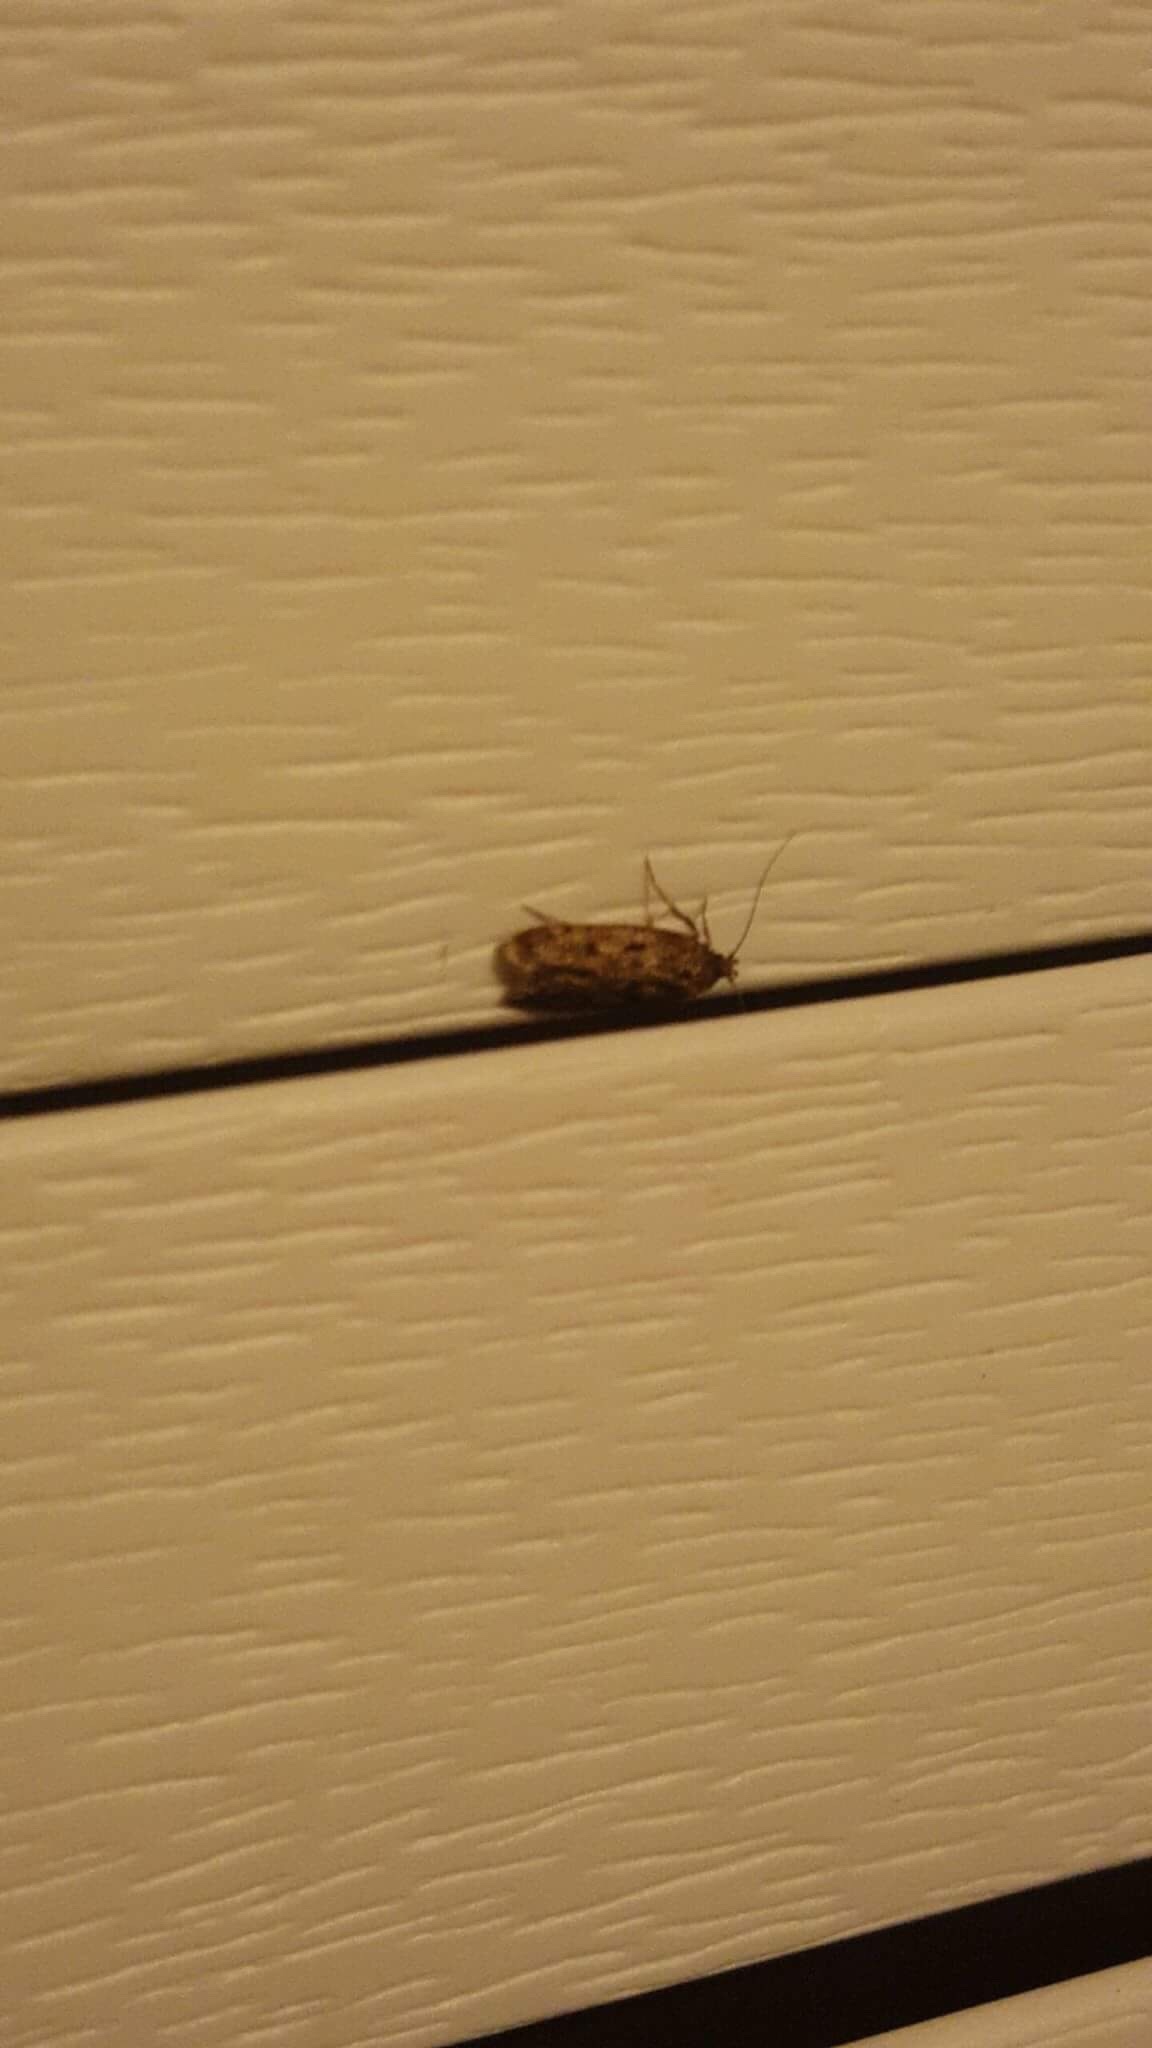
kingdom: Animalia
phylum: Arthropoda
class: Insecta
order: Lepidoptera
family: Oecophoridae
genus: Hofmannophila
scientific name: Hofmannophila pseudospretella
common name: Brown house moth
